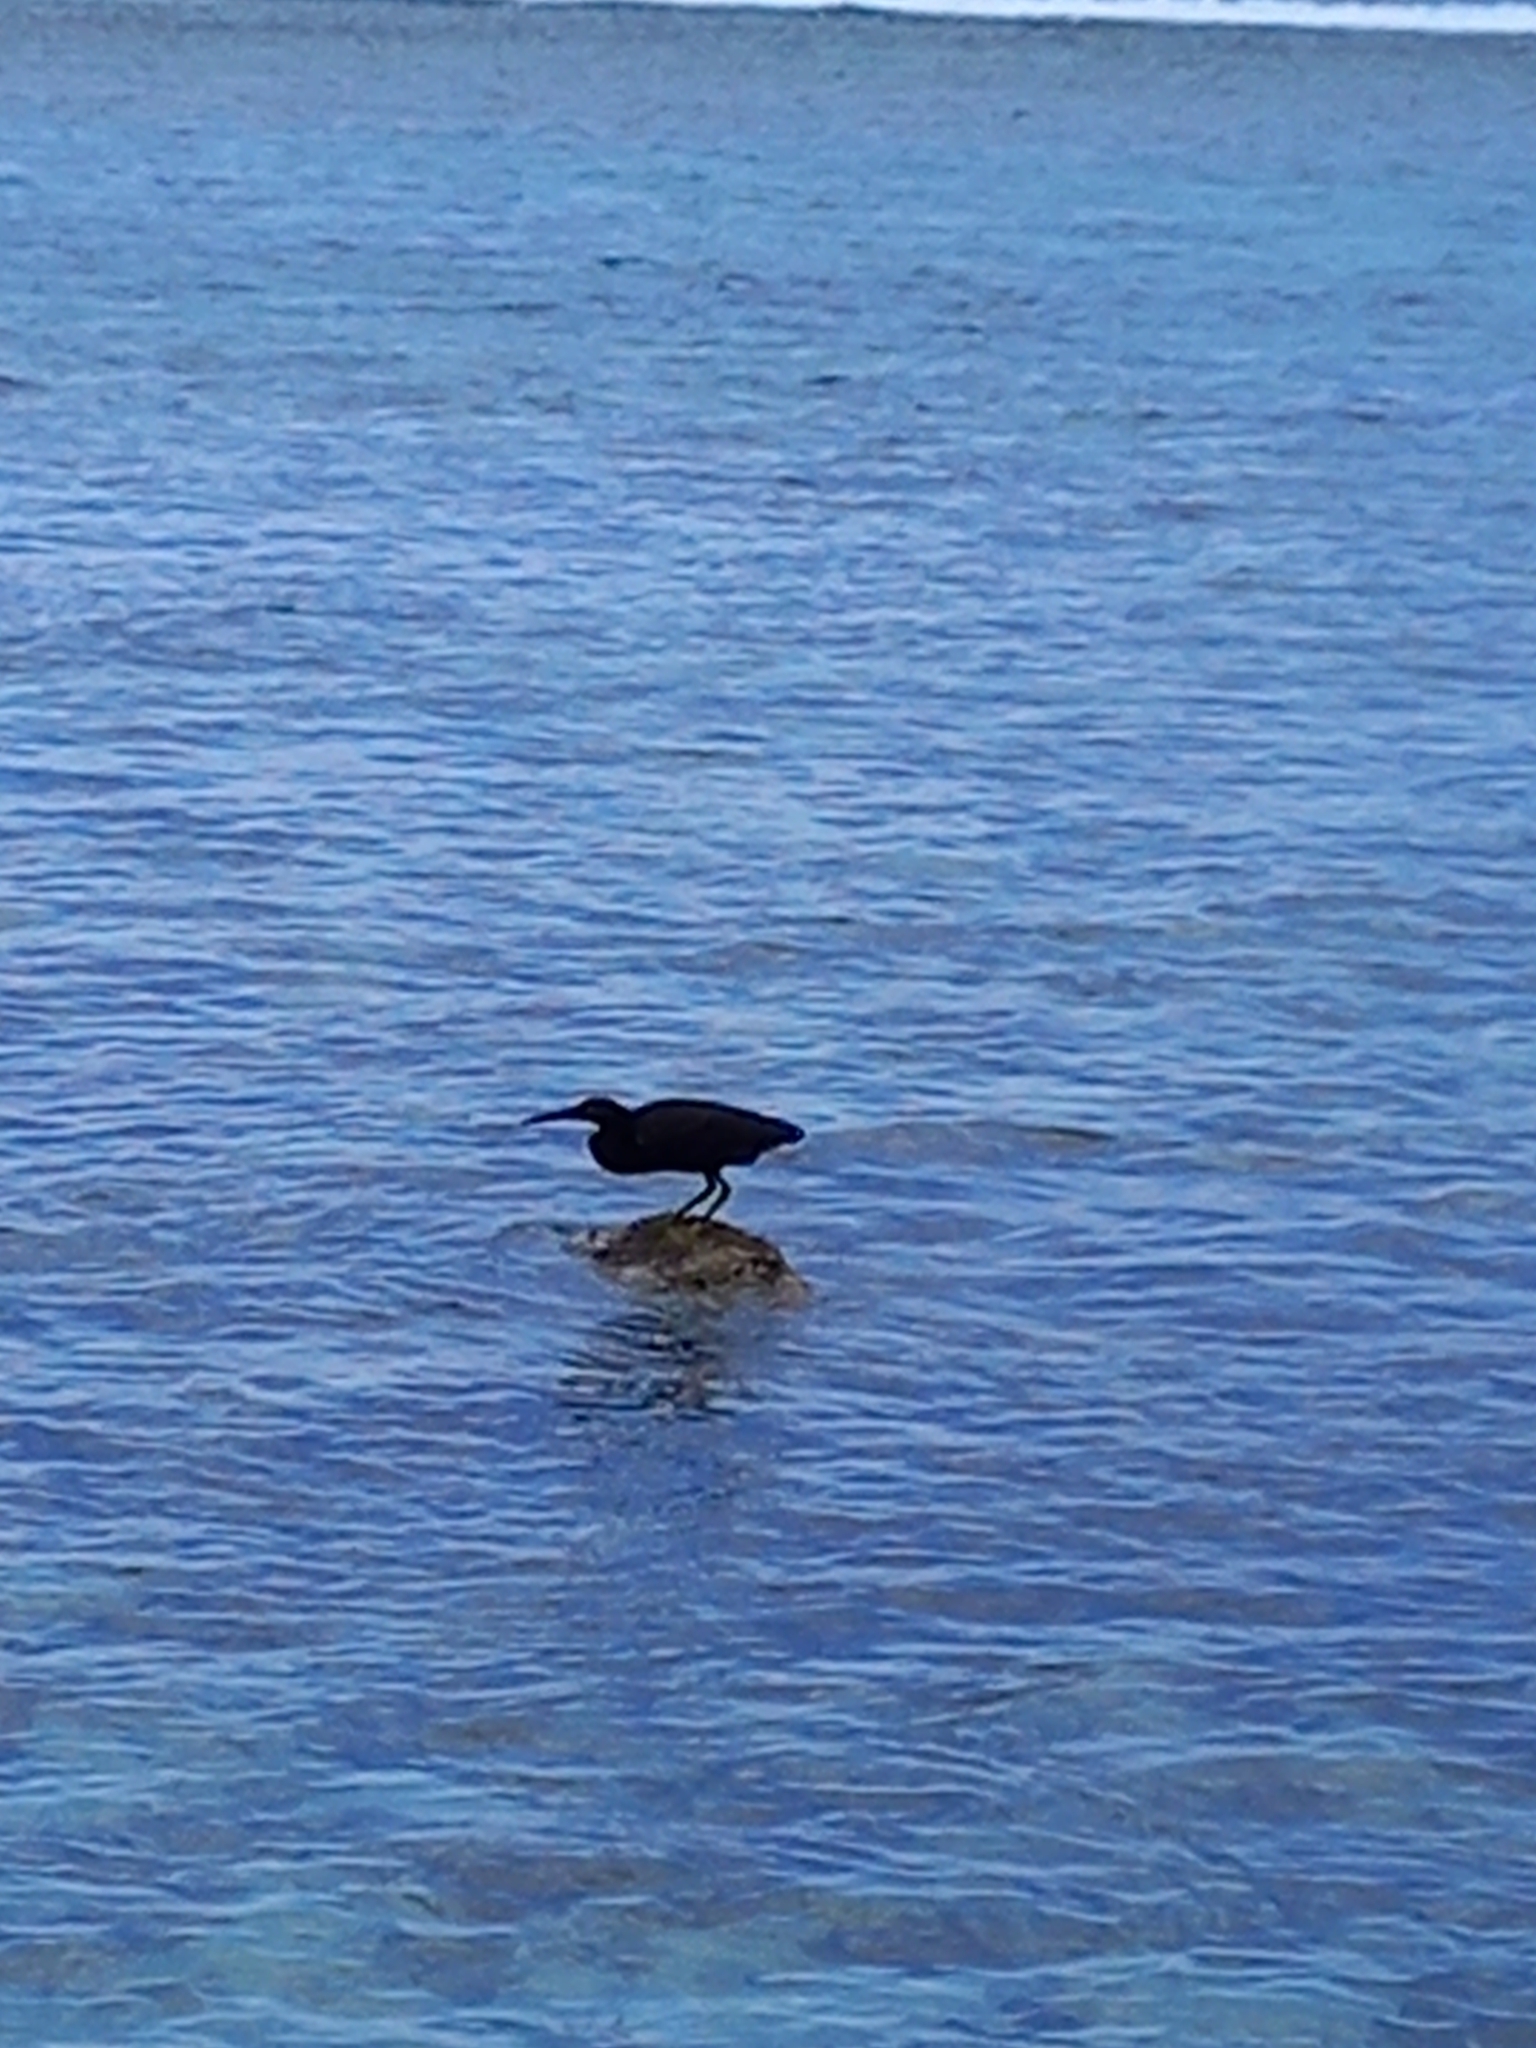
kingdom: Animalia
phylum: Chordata
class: Aves
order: Pelecaniformes
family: Ardeidae
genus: Egretta
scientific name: Egretta sacra
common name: Pacific reef heron
